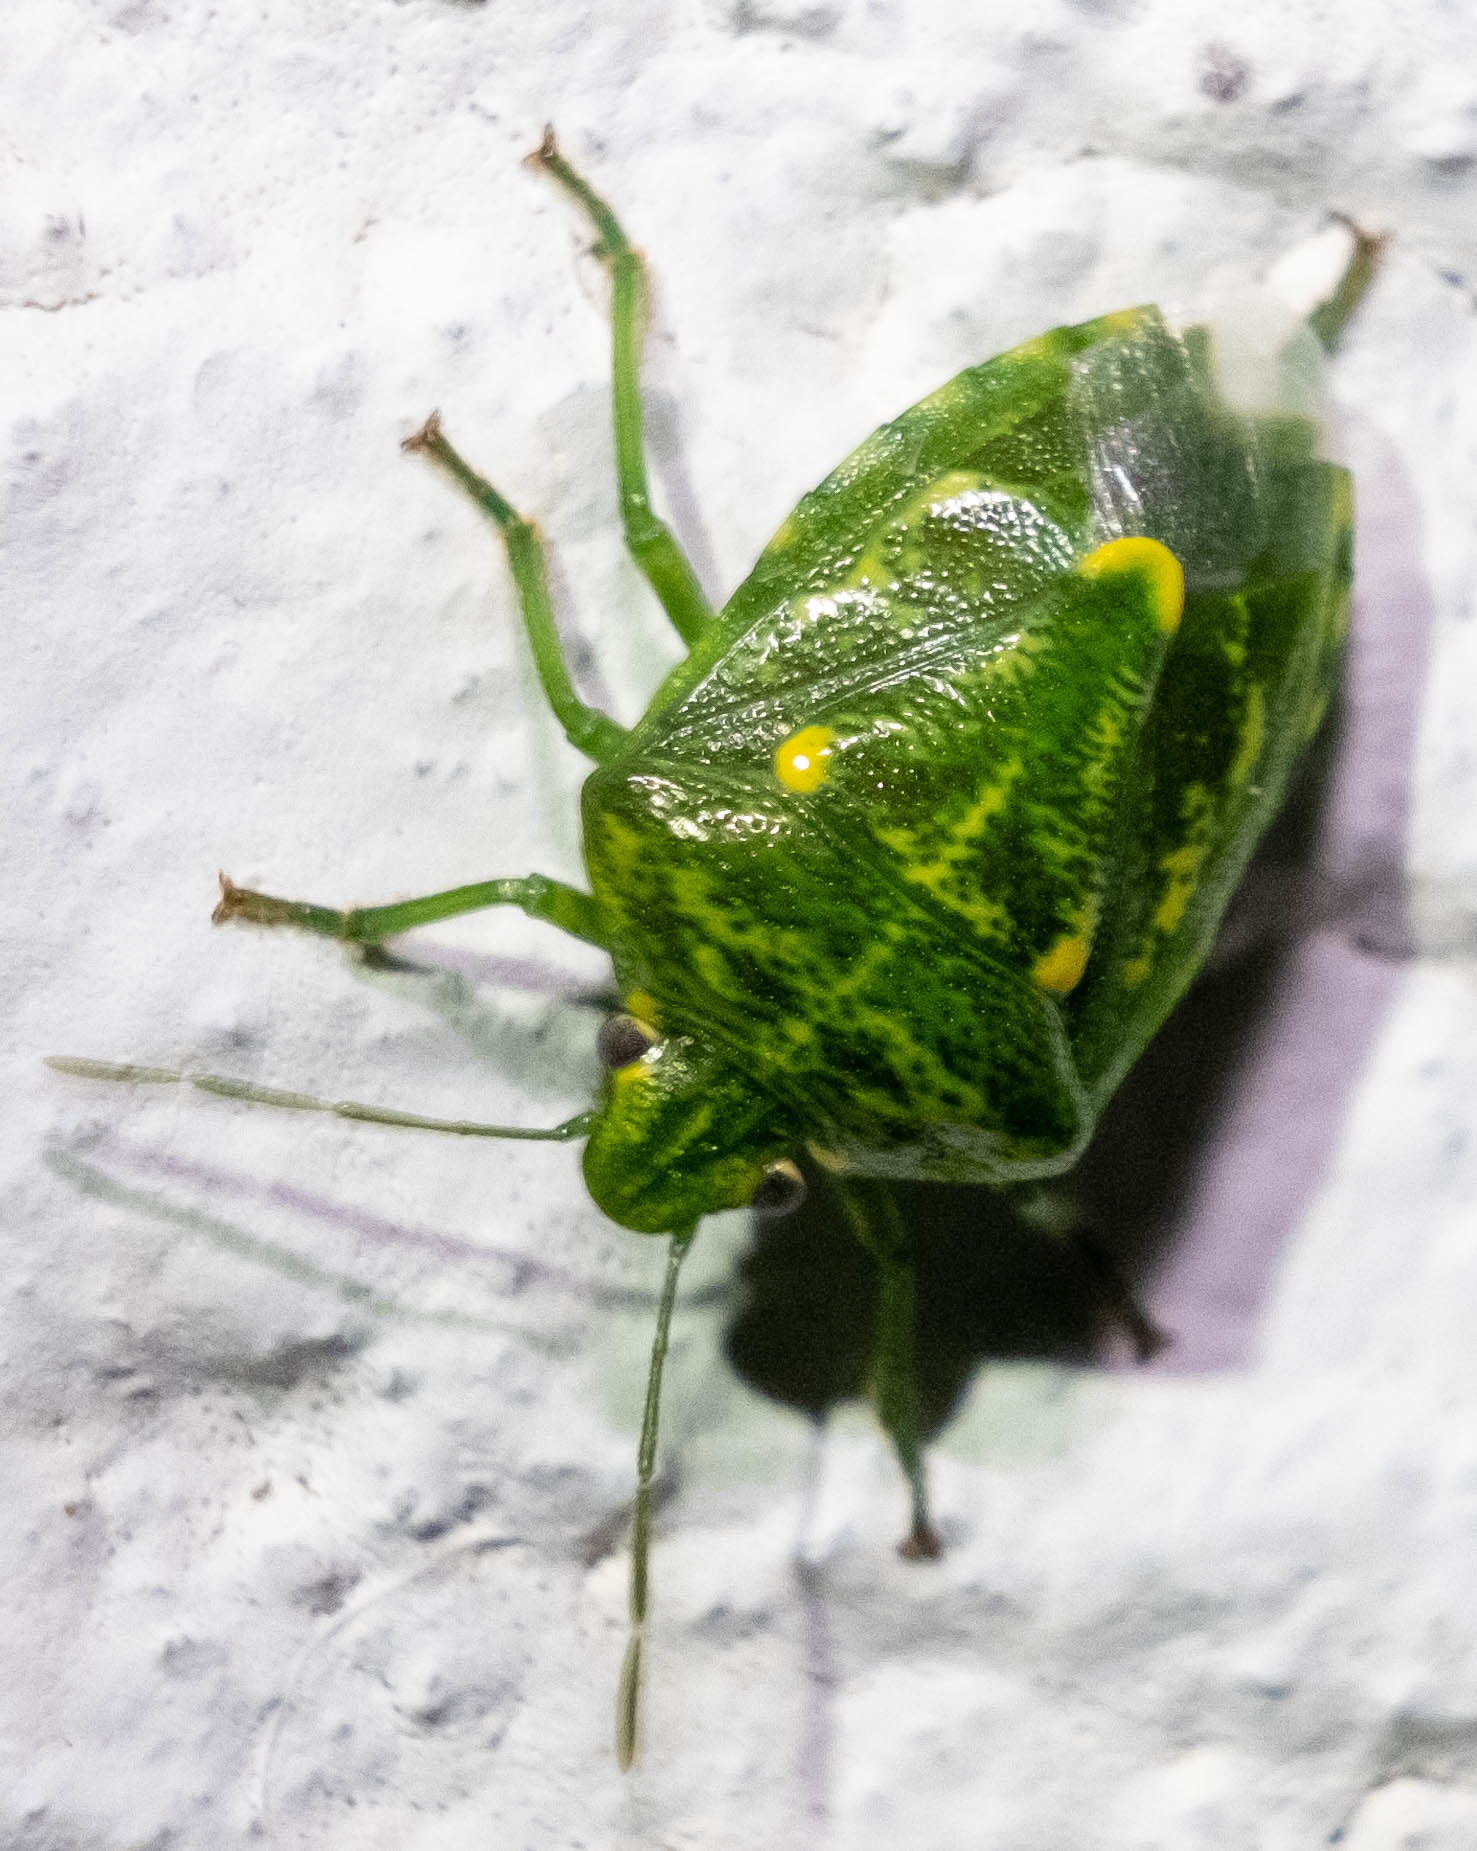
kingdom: Animalia
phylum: Arthropoda
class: Insecta
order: Hemiptera
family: Pentatomidae
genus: Banasa
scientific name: Banasa euchlora
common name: Cedar berry bug
